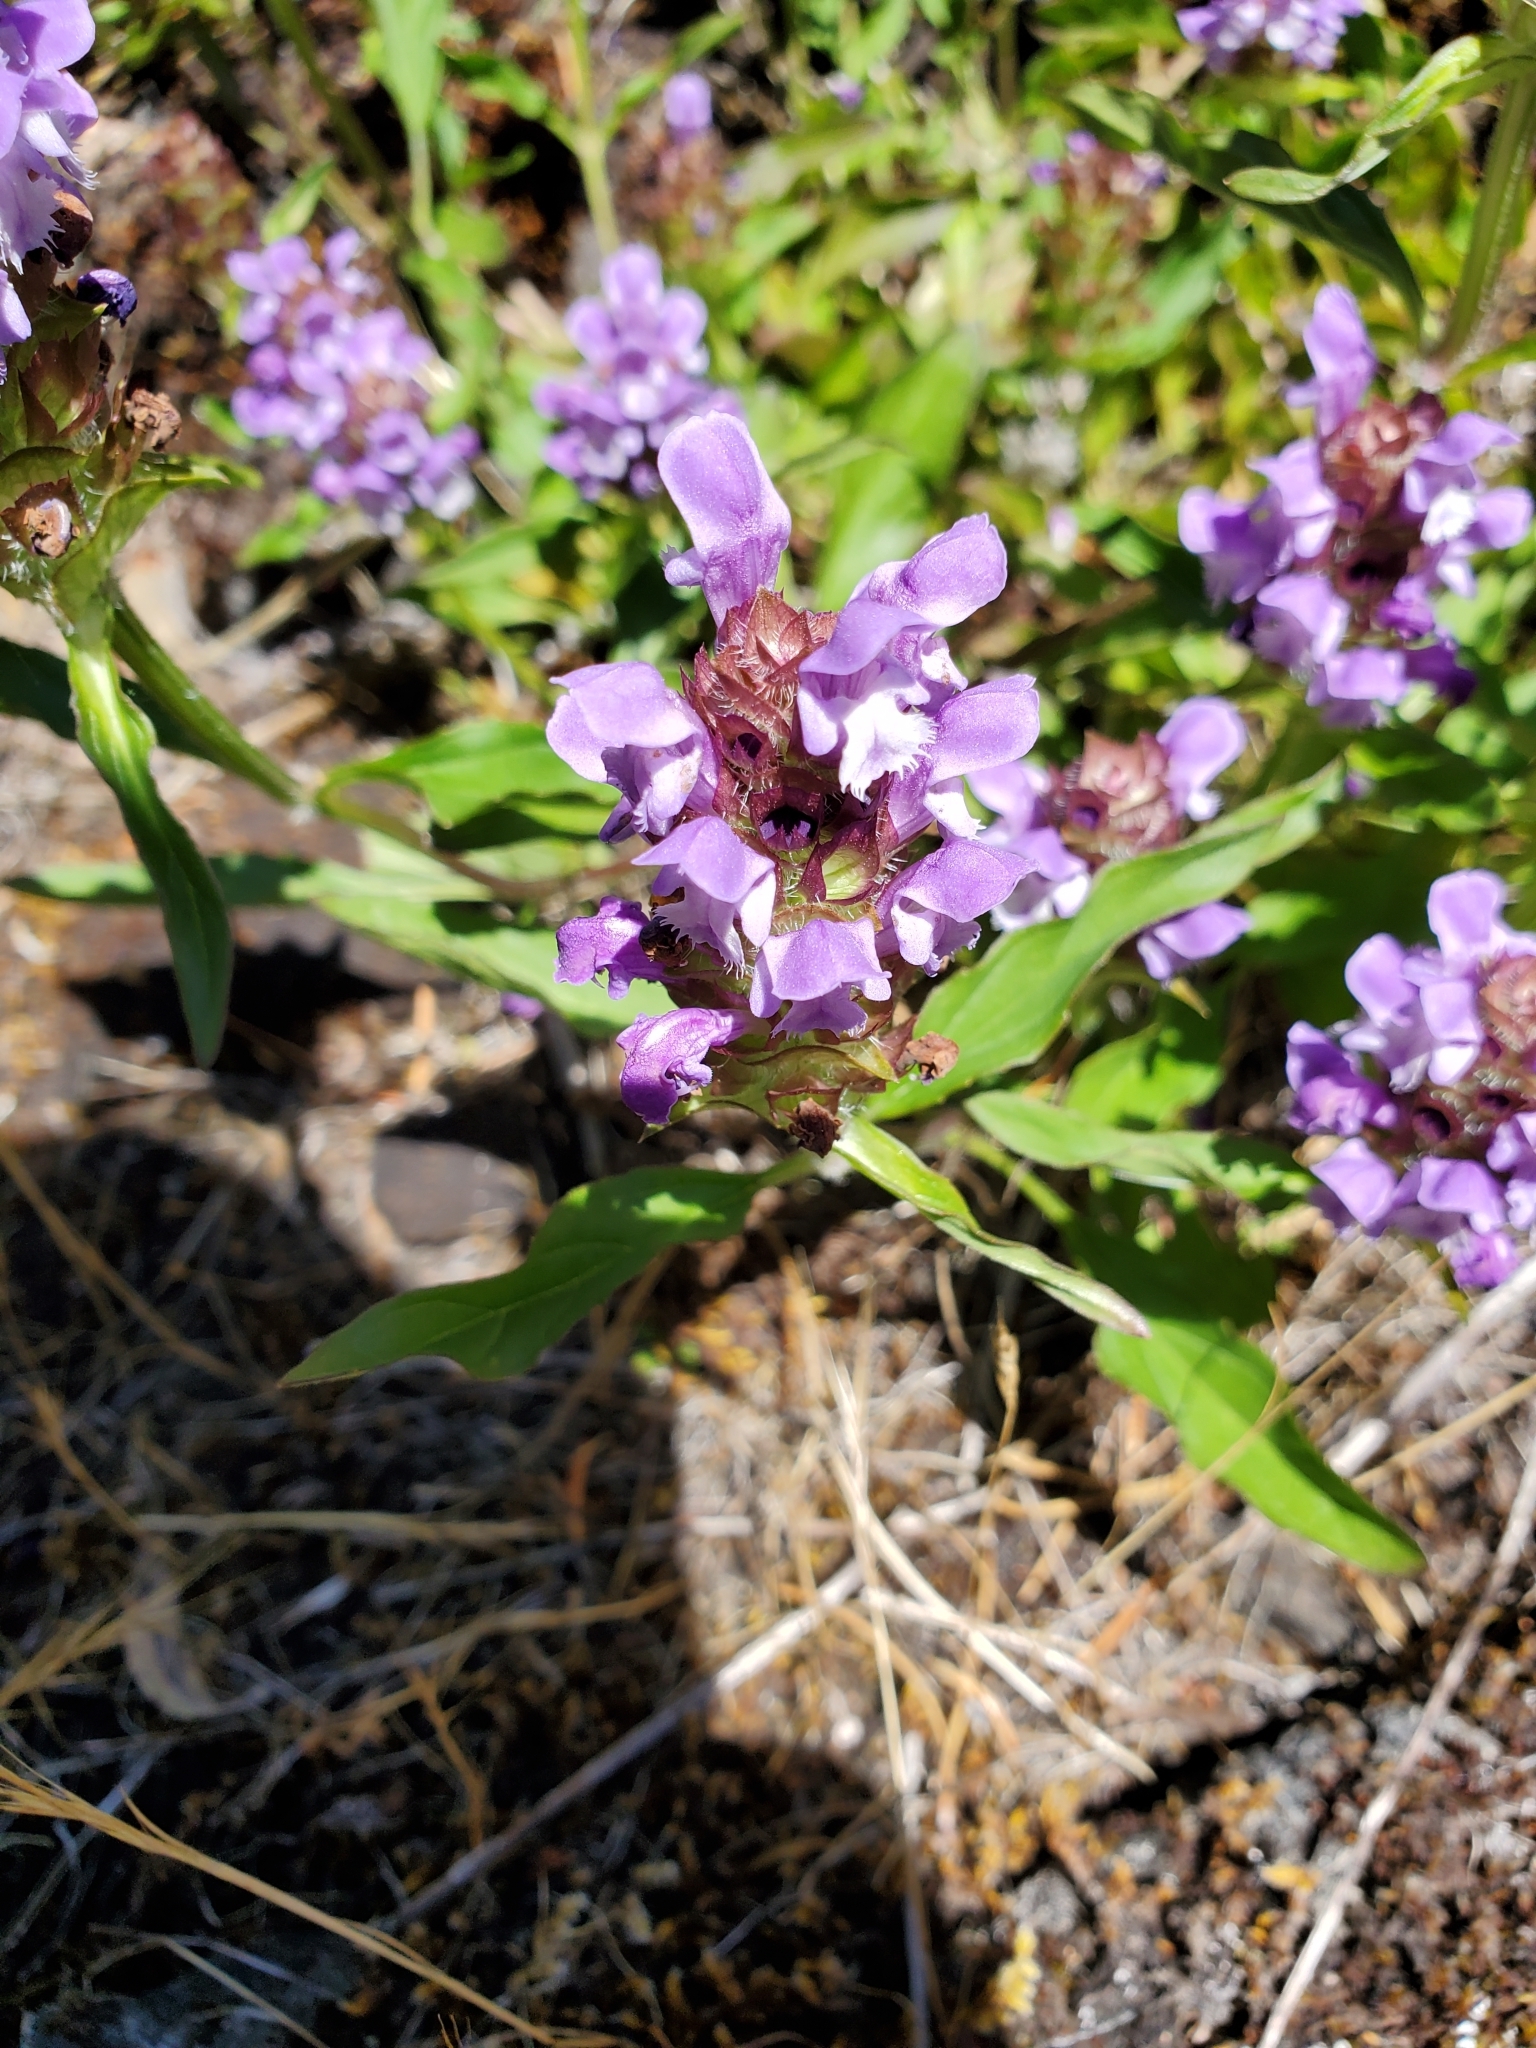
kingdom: Plantae
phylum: Tracheophyta
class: Magnoliopsida
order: Lamiales
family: Lamiaceae
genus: Prunella
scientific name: Prunella vulgaris
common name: Heal-all
